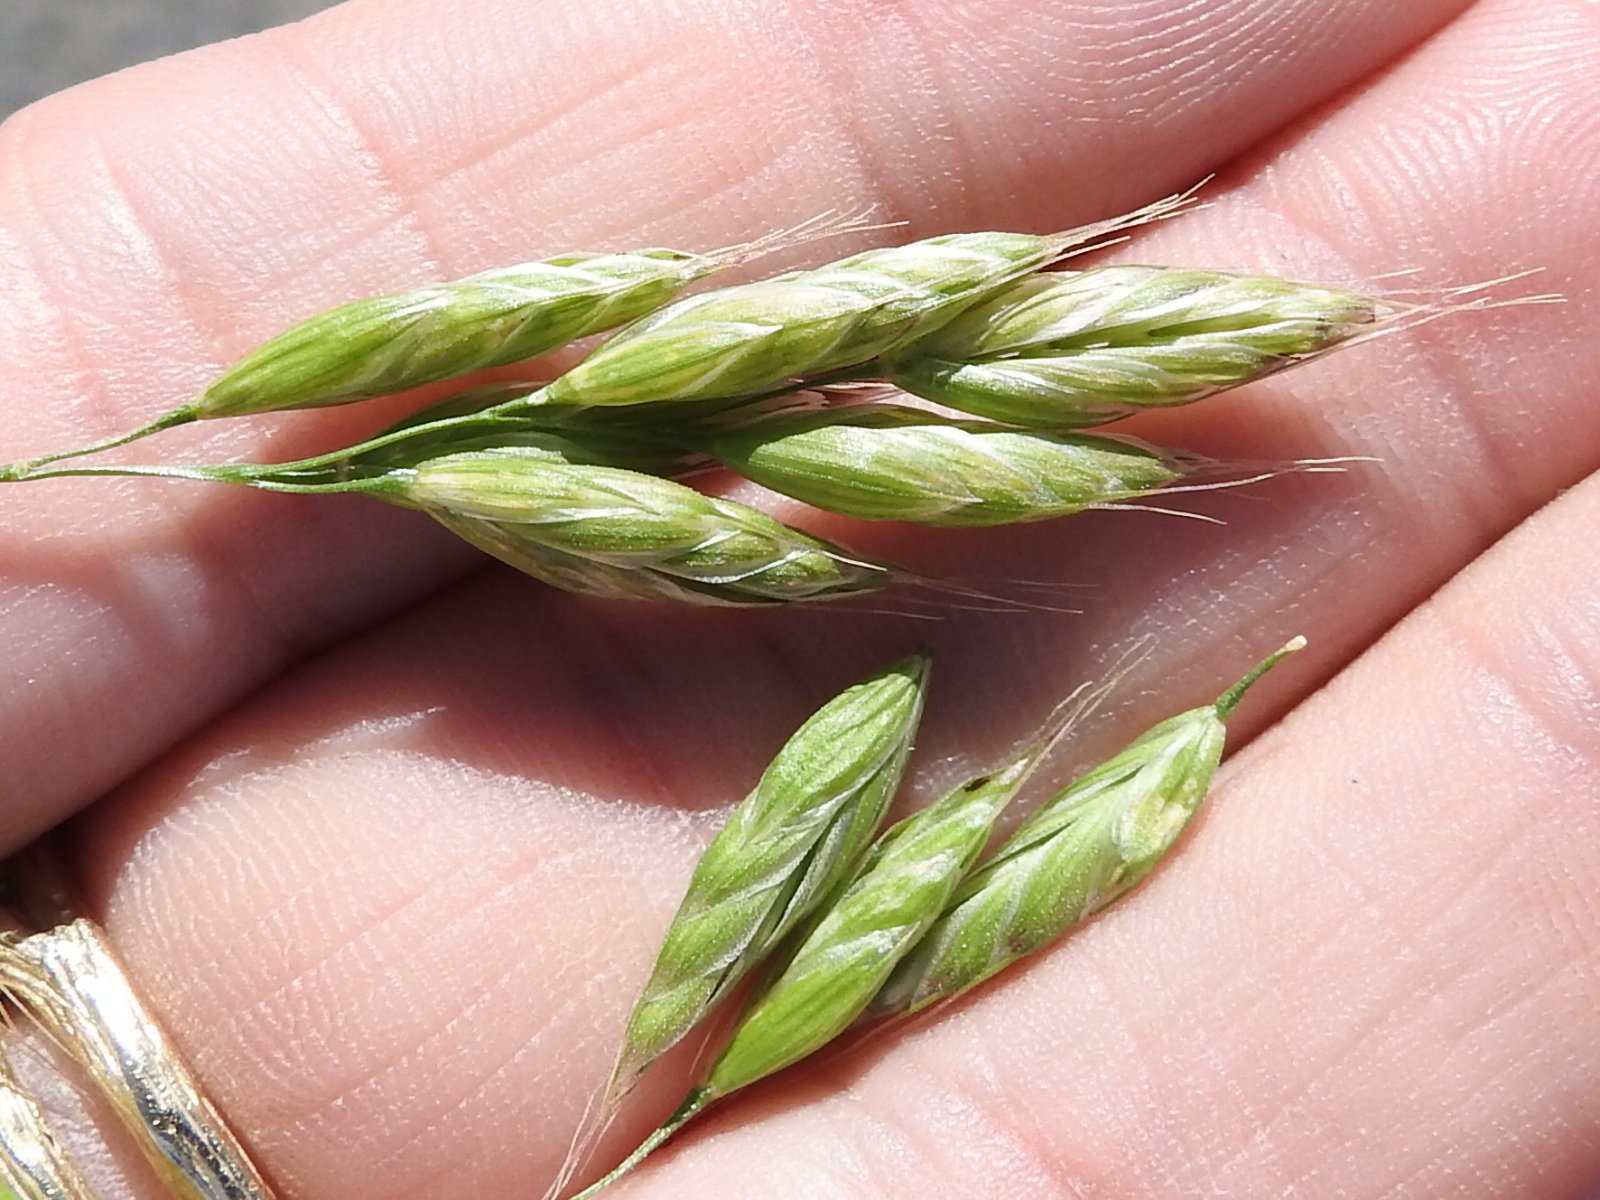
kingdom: Plantae
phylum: Tracheophyta
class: Liliopsida
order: Poales
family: Poaceae
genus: Bromus
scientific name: Bromus hordeaceus
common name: Soft brome
